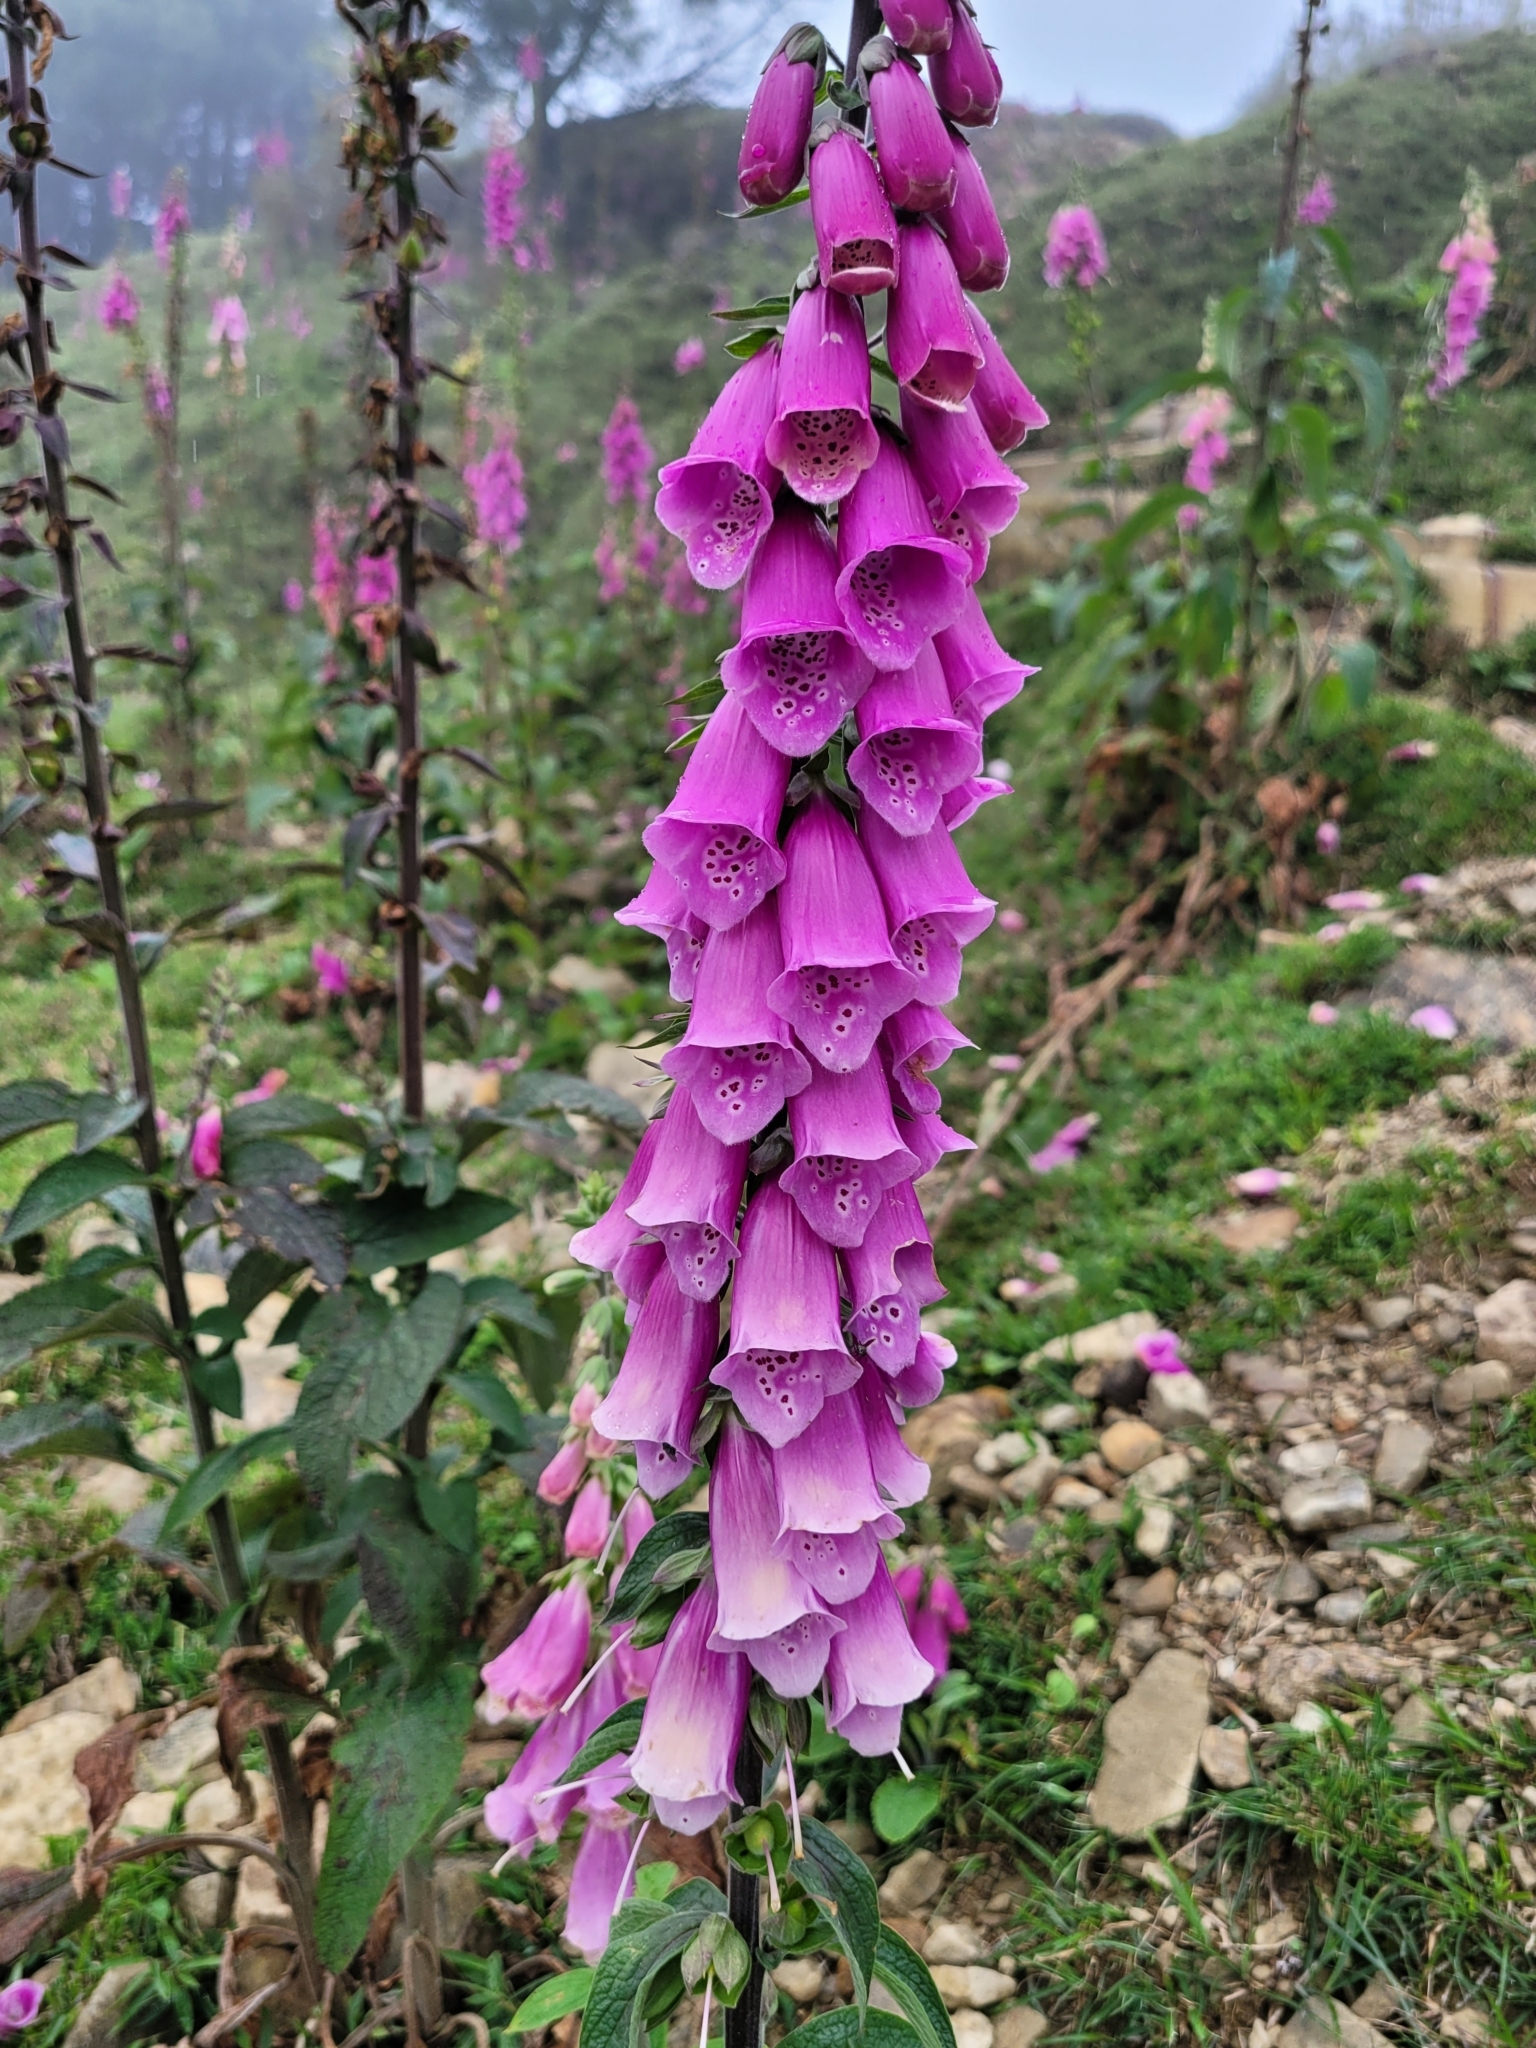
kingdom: Plantae
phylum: Tracheophyta
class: Magnoliopsida
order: Lamiales
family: Plantaginaceae
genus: Digitalis
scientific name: Digitalis purpurea
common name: Foxglove
